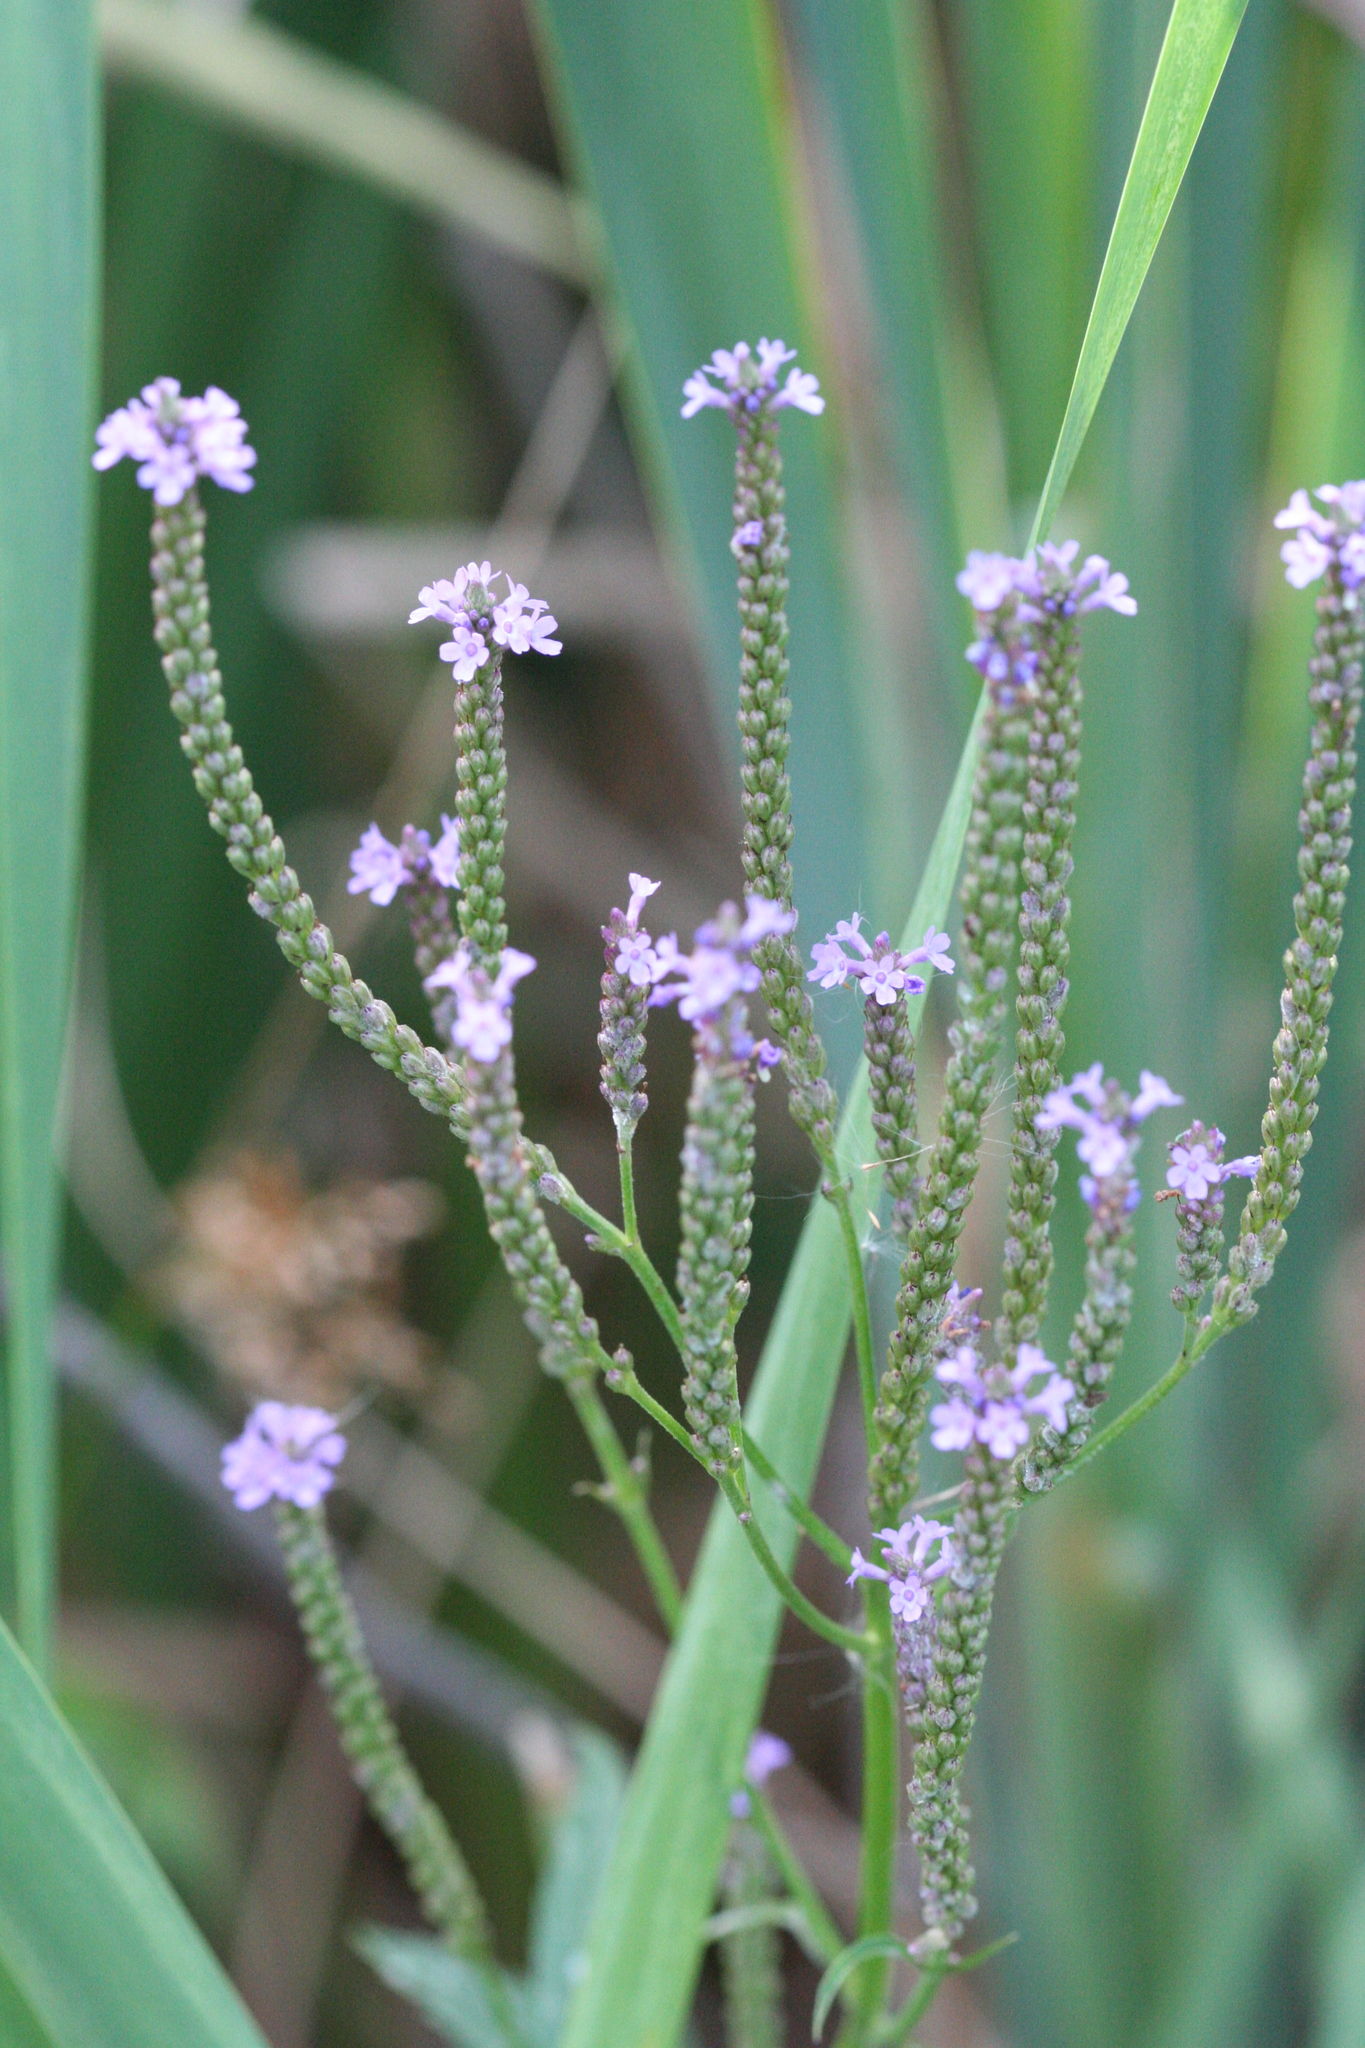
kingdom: Plantae
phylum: Tracheophyta
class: Magnoliopsida
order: Lamiales
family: Verbenaceae
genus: Verbena
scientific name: Verbena hastata
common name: American blue vervain
